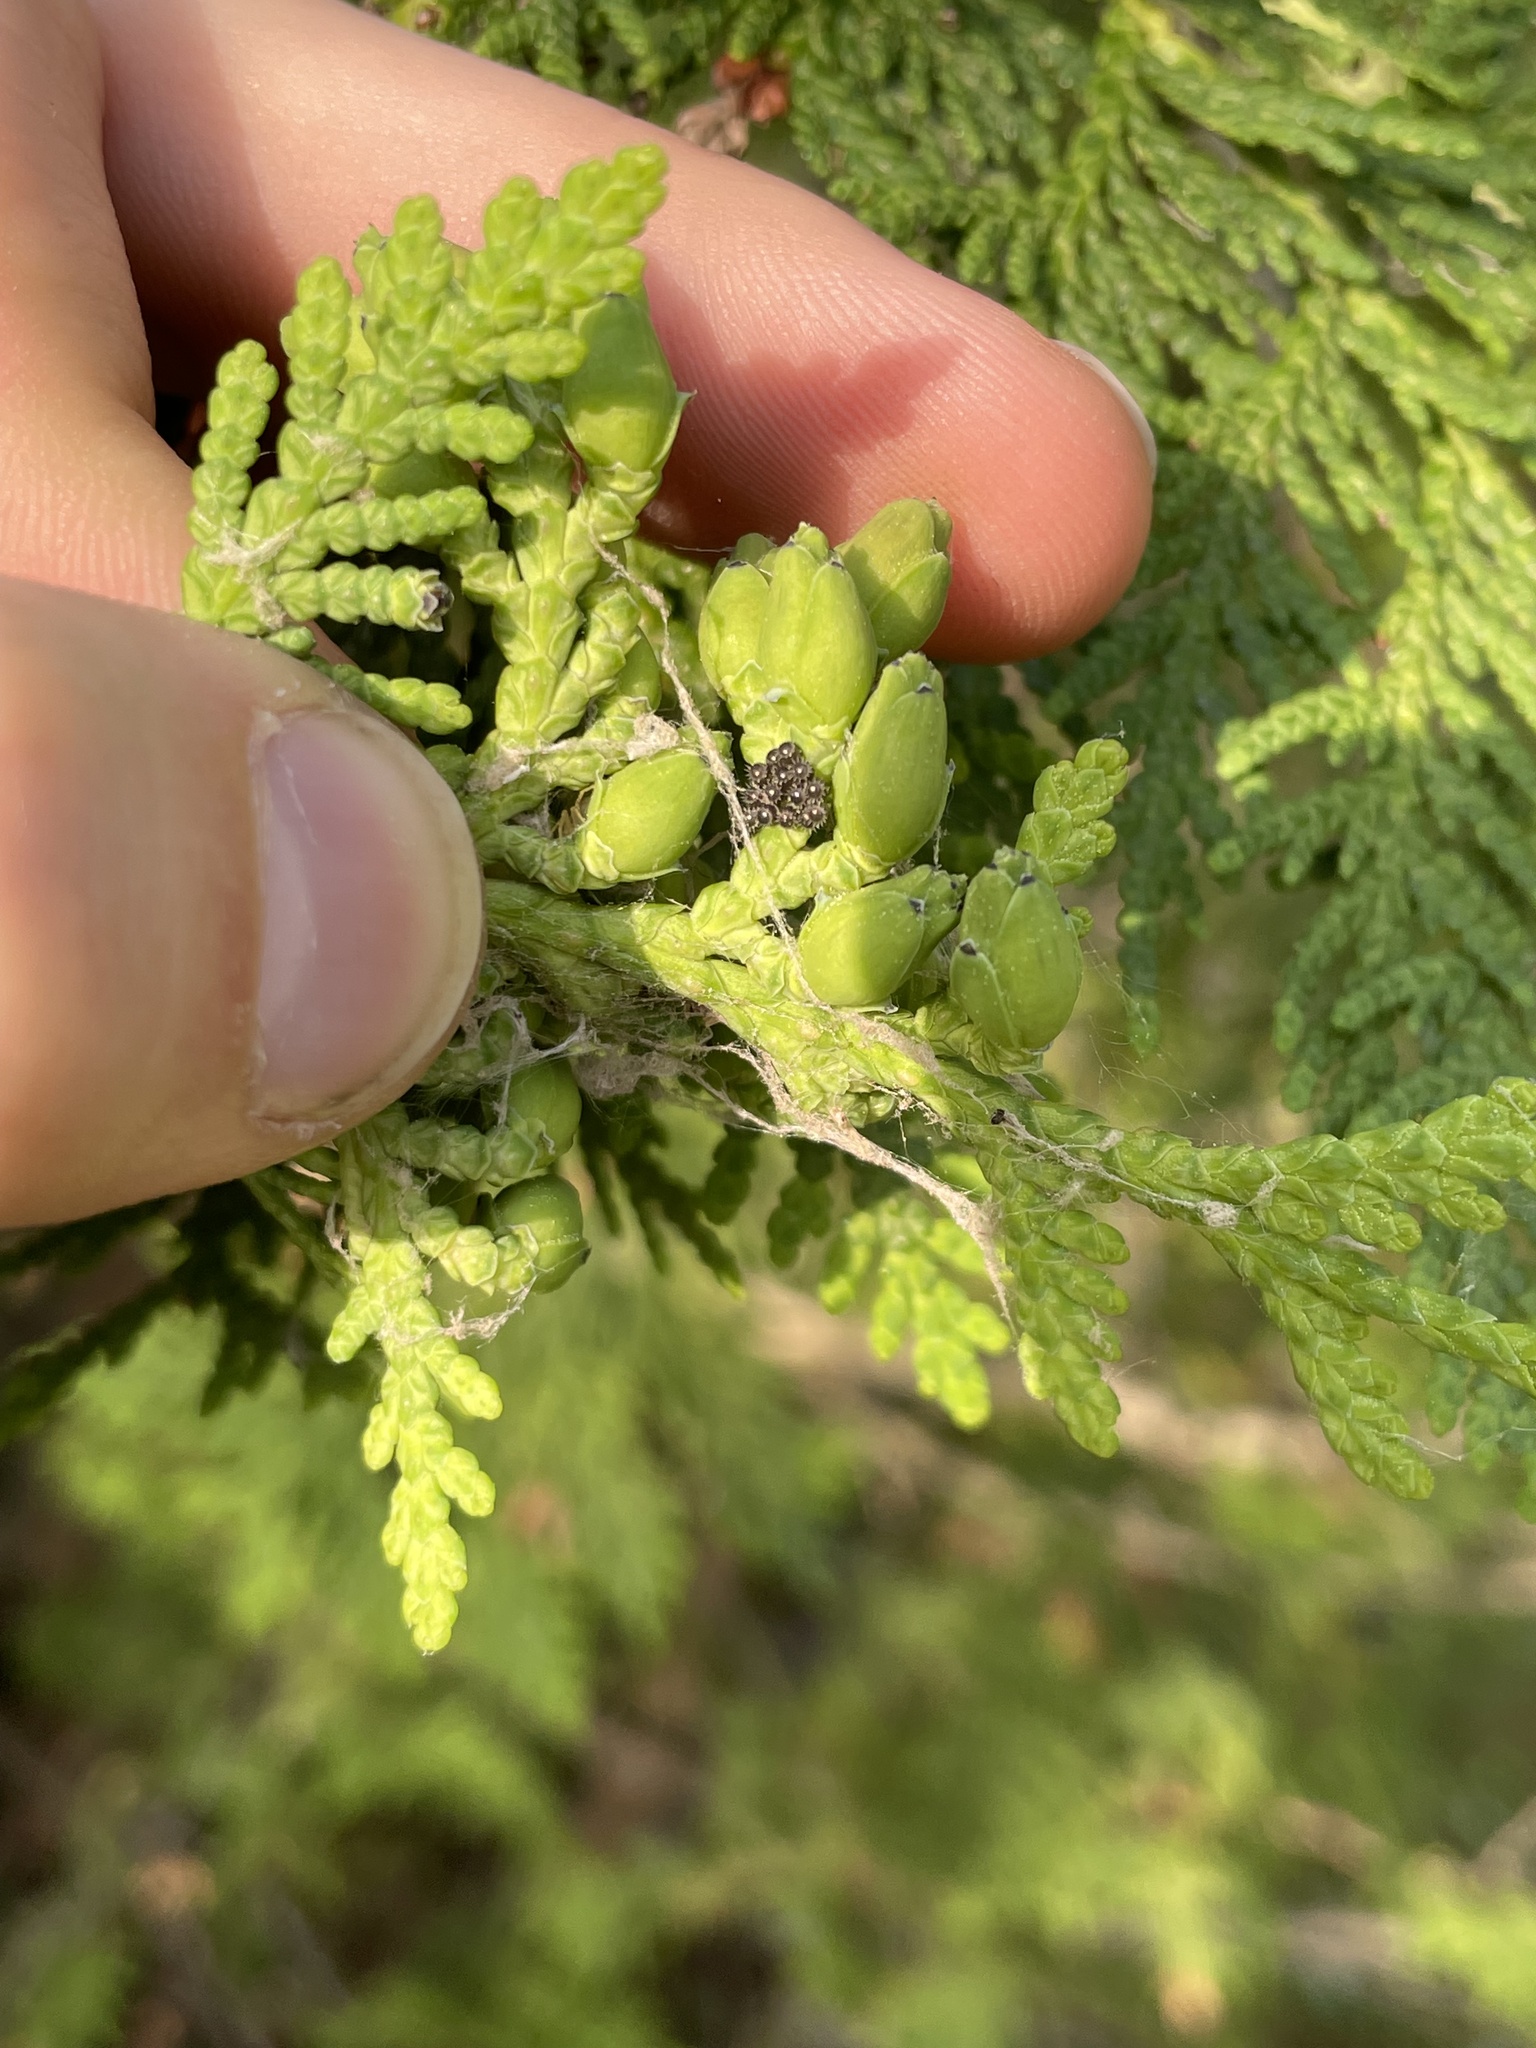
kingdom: Plantae
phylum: Tracheophyta
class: Pinopsida
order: Pinales
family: Cupressaceae
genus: Thuja
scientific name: Thuja occidentalis
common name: Northern white-cedar
